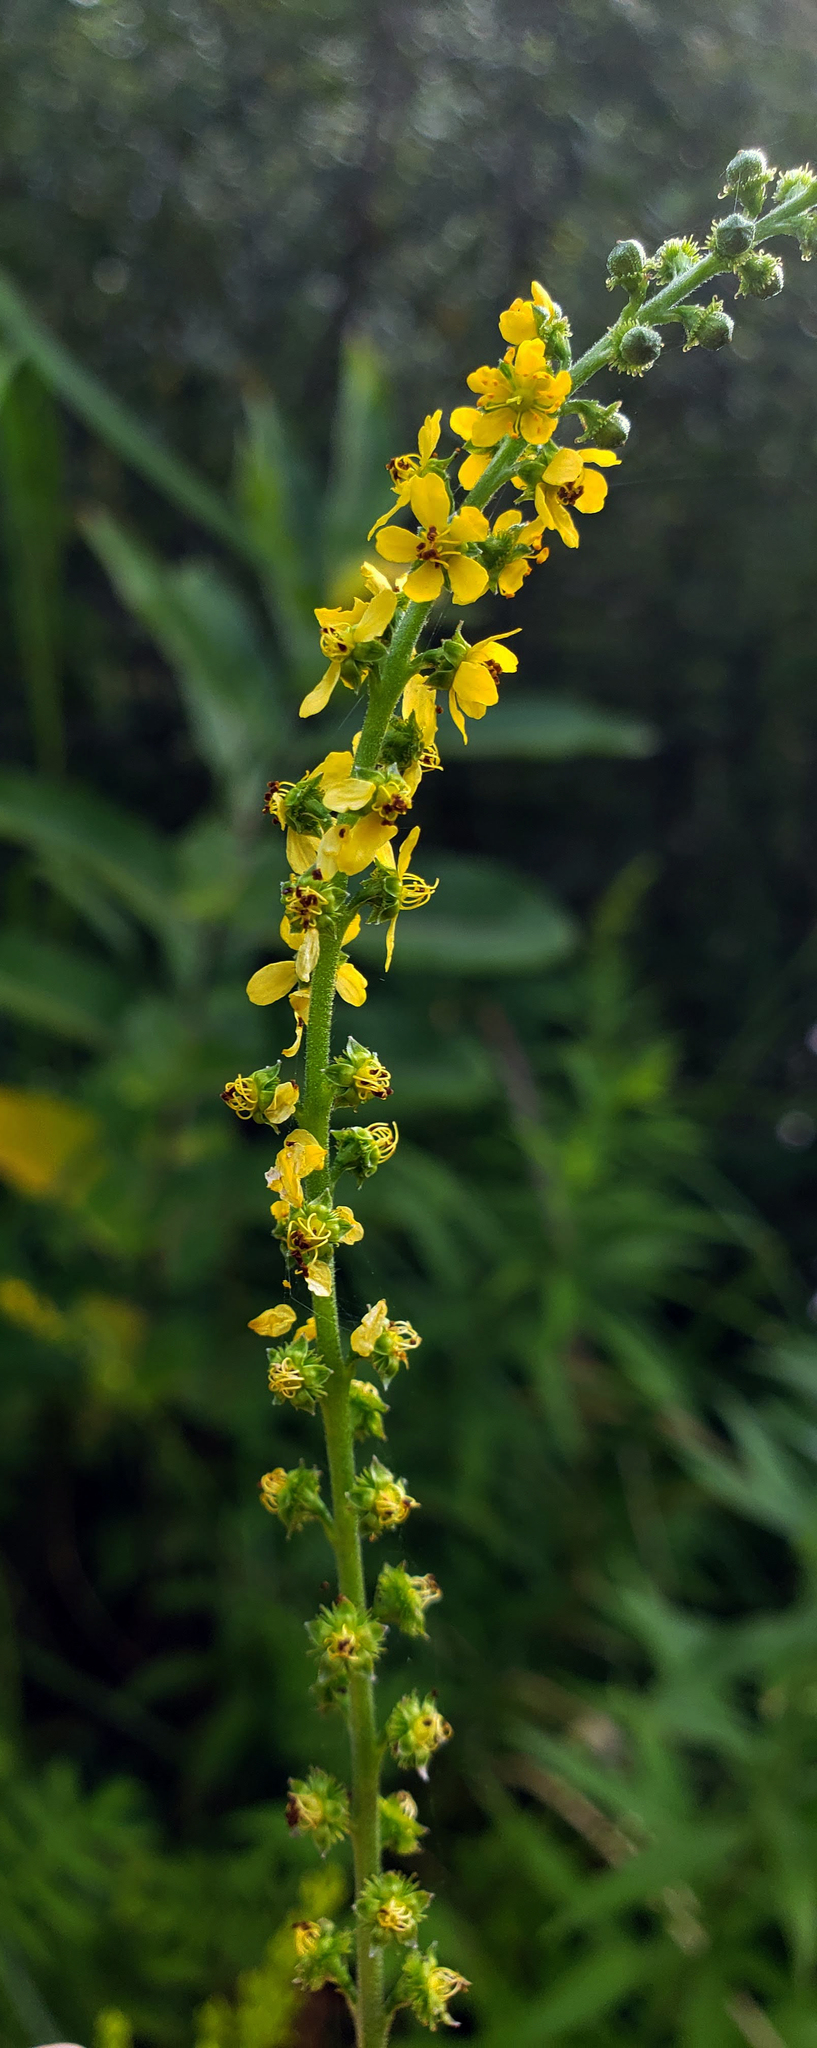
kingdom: Plantae
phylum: Tracheophyta
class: Magnoliopsida
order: Rosales
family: Rosaceae
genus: Agrimonia
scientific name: Agrimonia parviflora
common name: Harvest-lice
